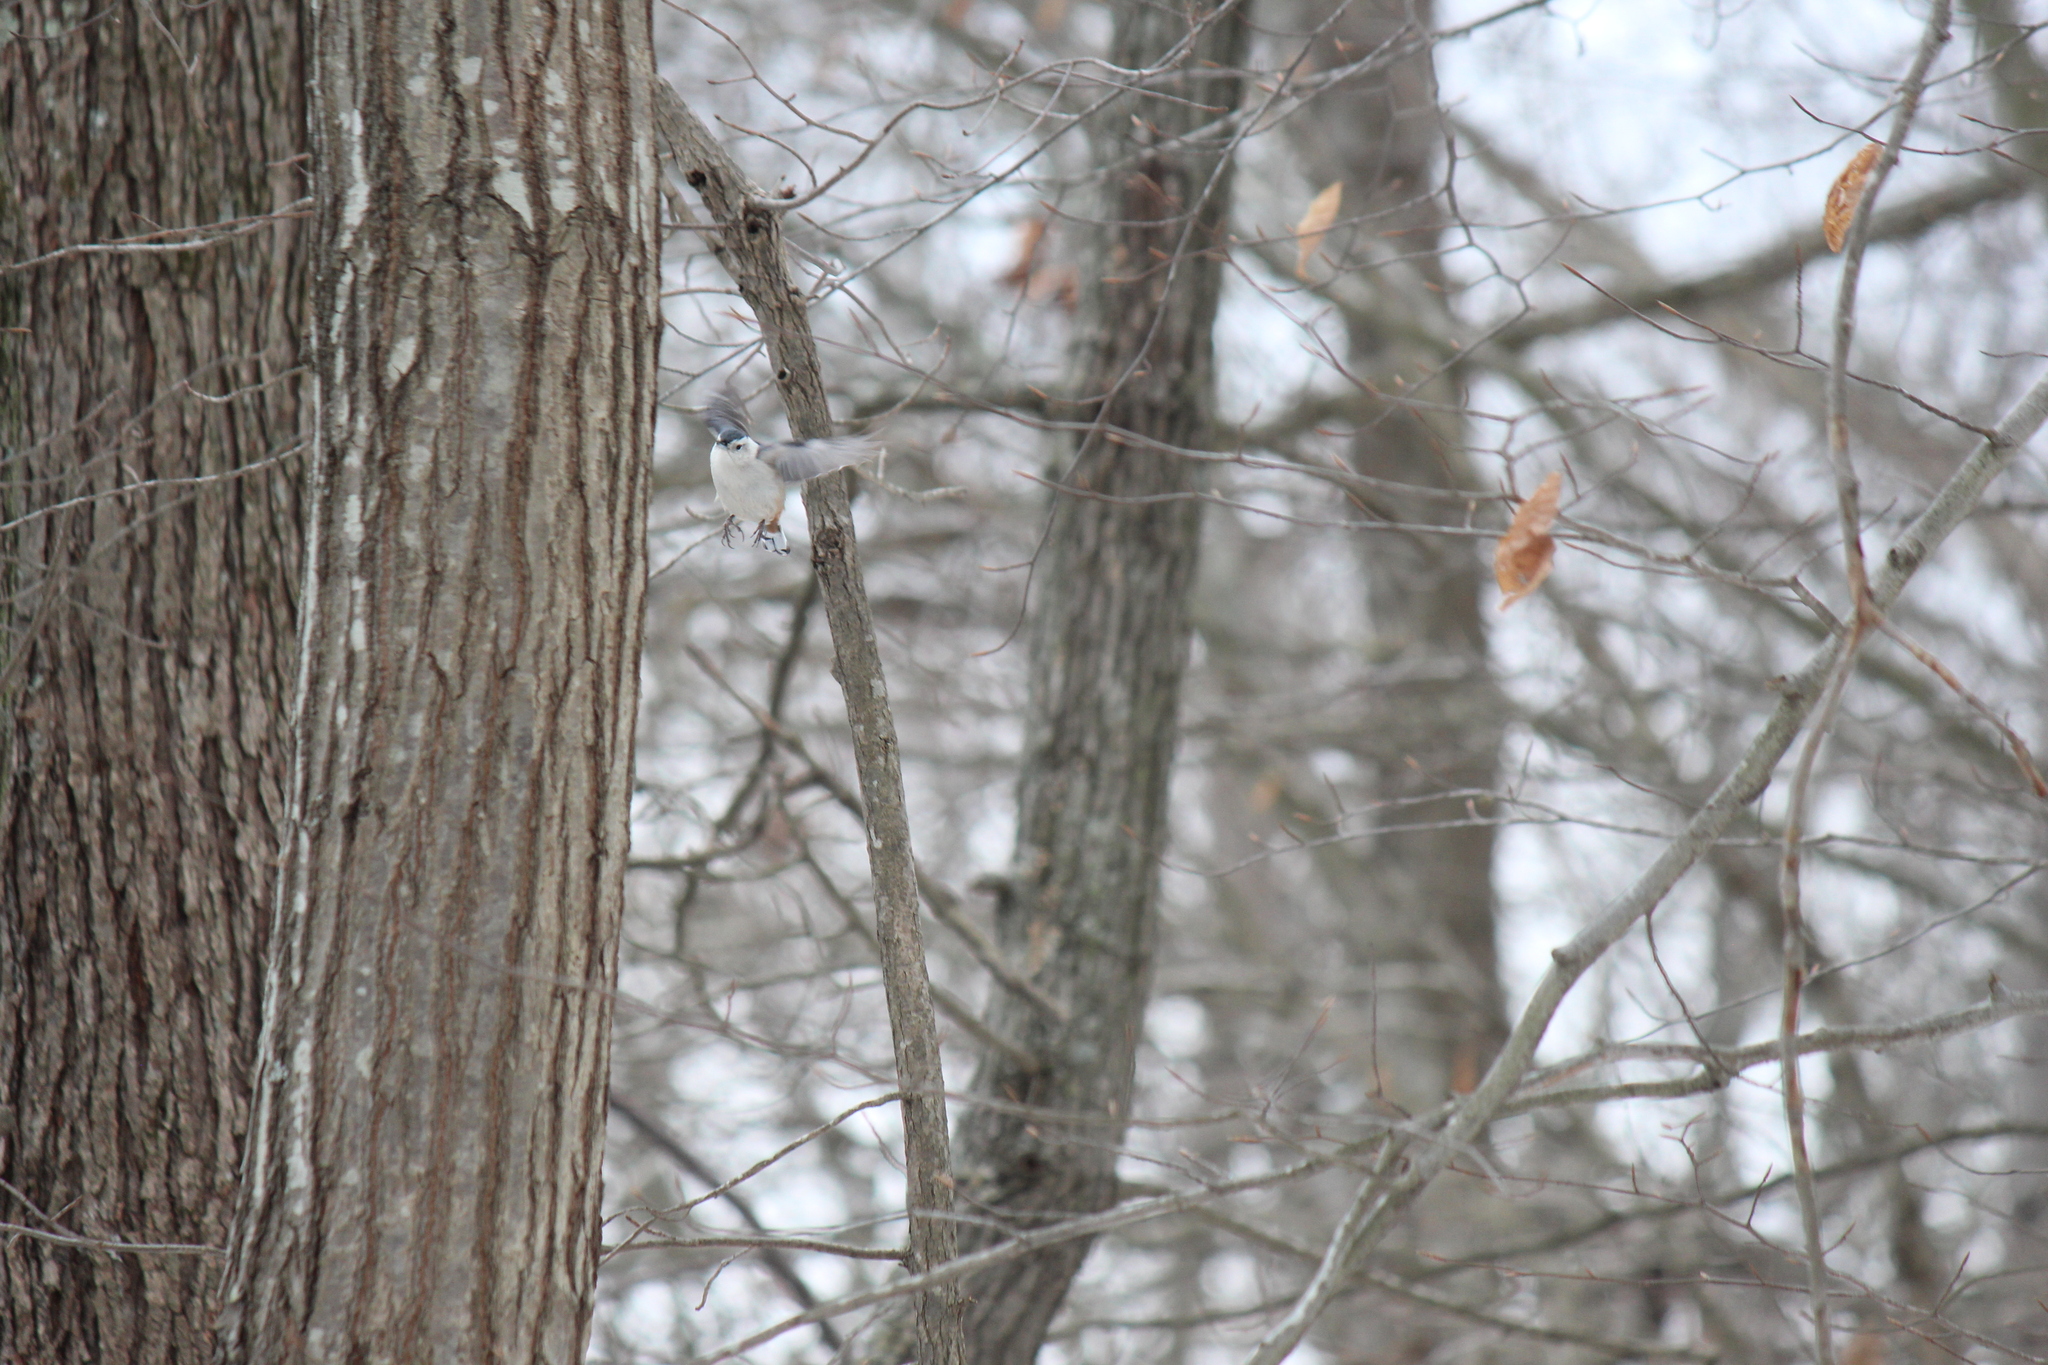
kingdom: Animalia
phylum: Chordata
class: Aves
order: Passeriformes
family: Sittidae
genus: Sitta
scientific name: Sitta carolinensis
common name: White-breasted nuthatch
